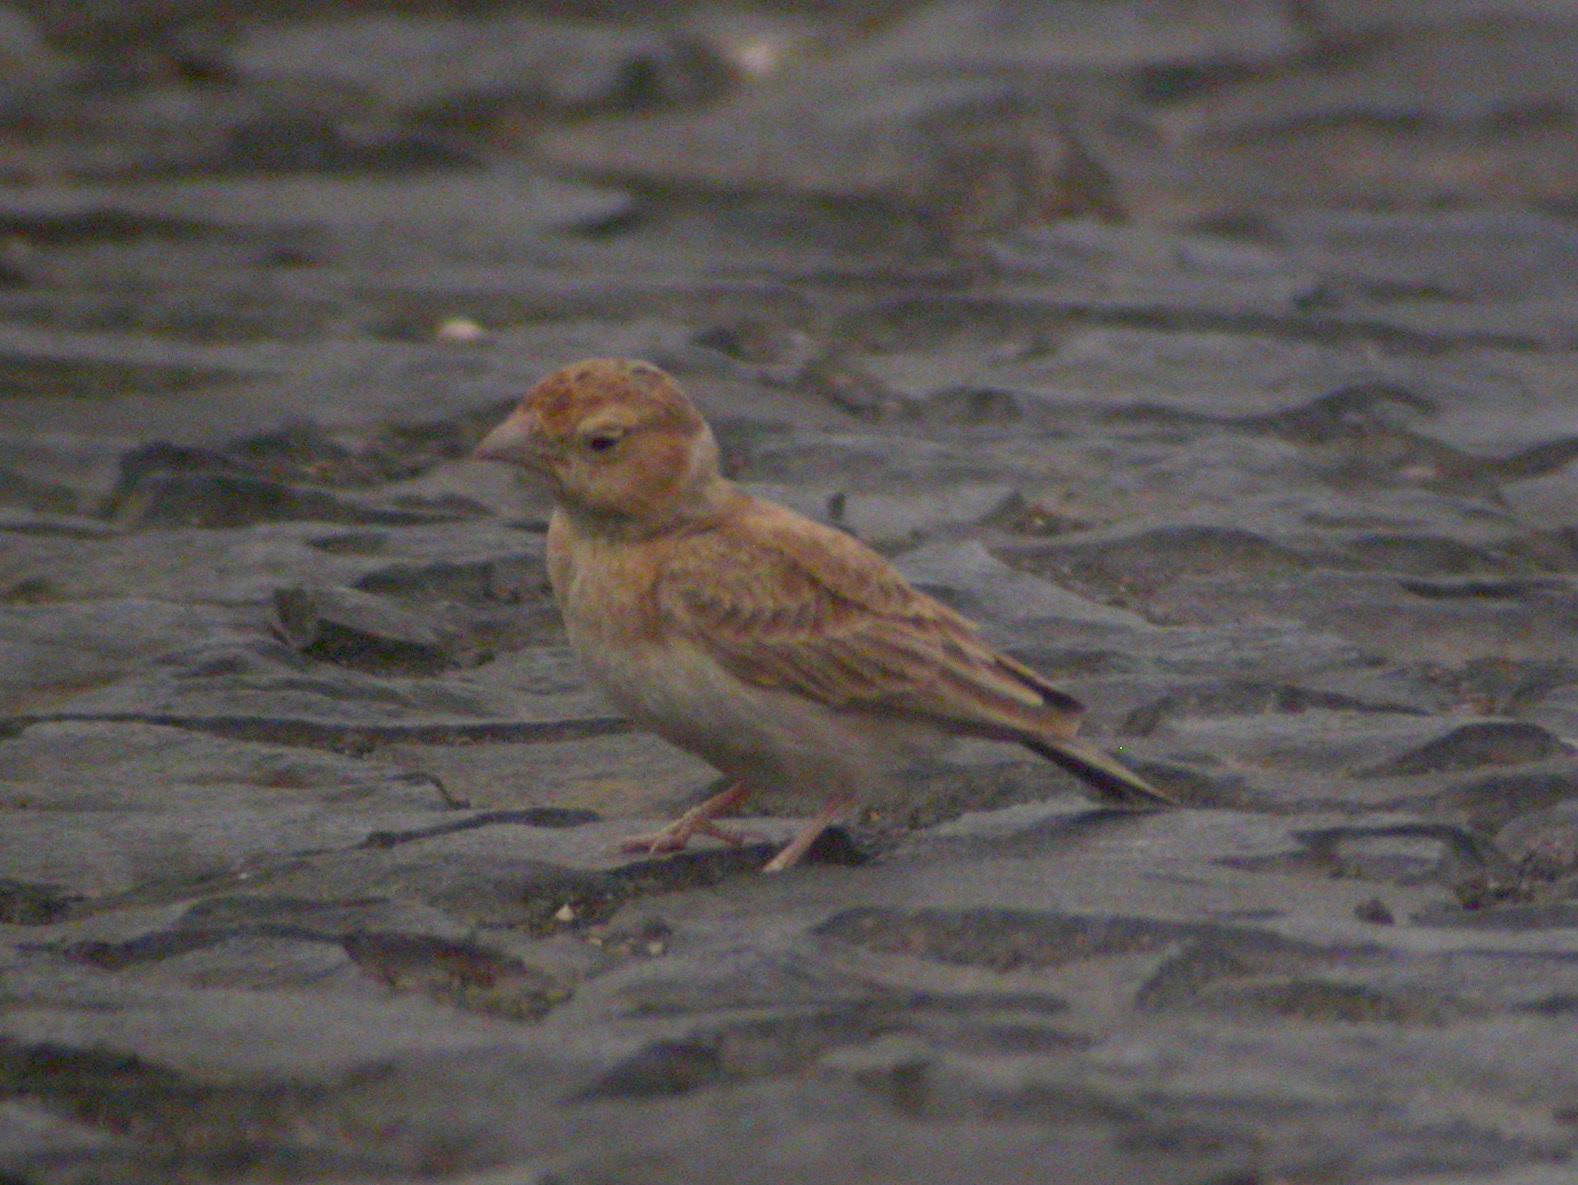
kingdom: Animalia
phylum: Chordata
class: Aves
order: Passeriformes
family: Alaudidae
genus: Eremopterix
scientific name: Eremopterix nigriceps
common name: Black-crowned sparrow-lark
